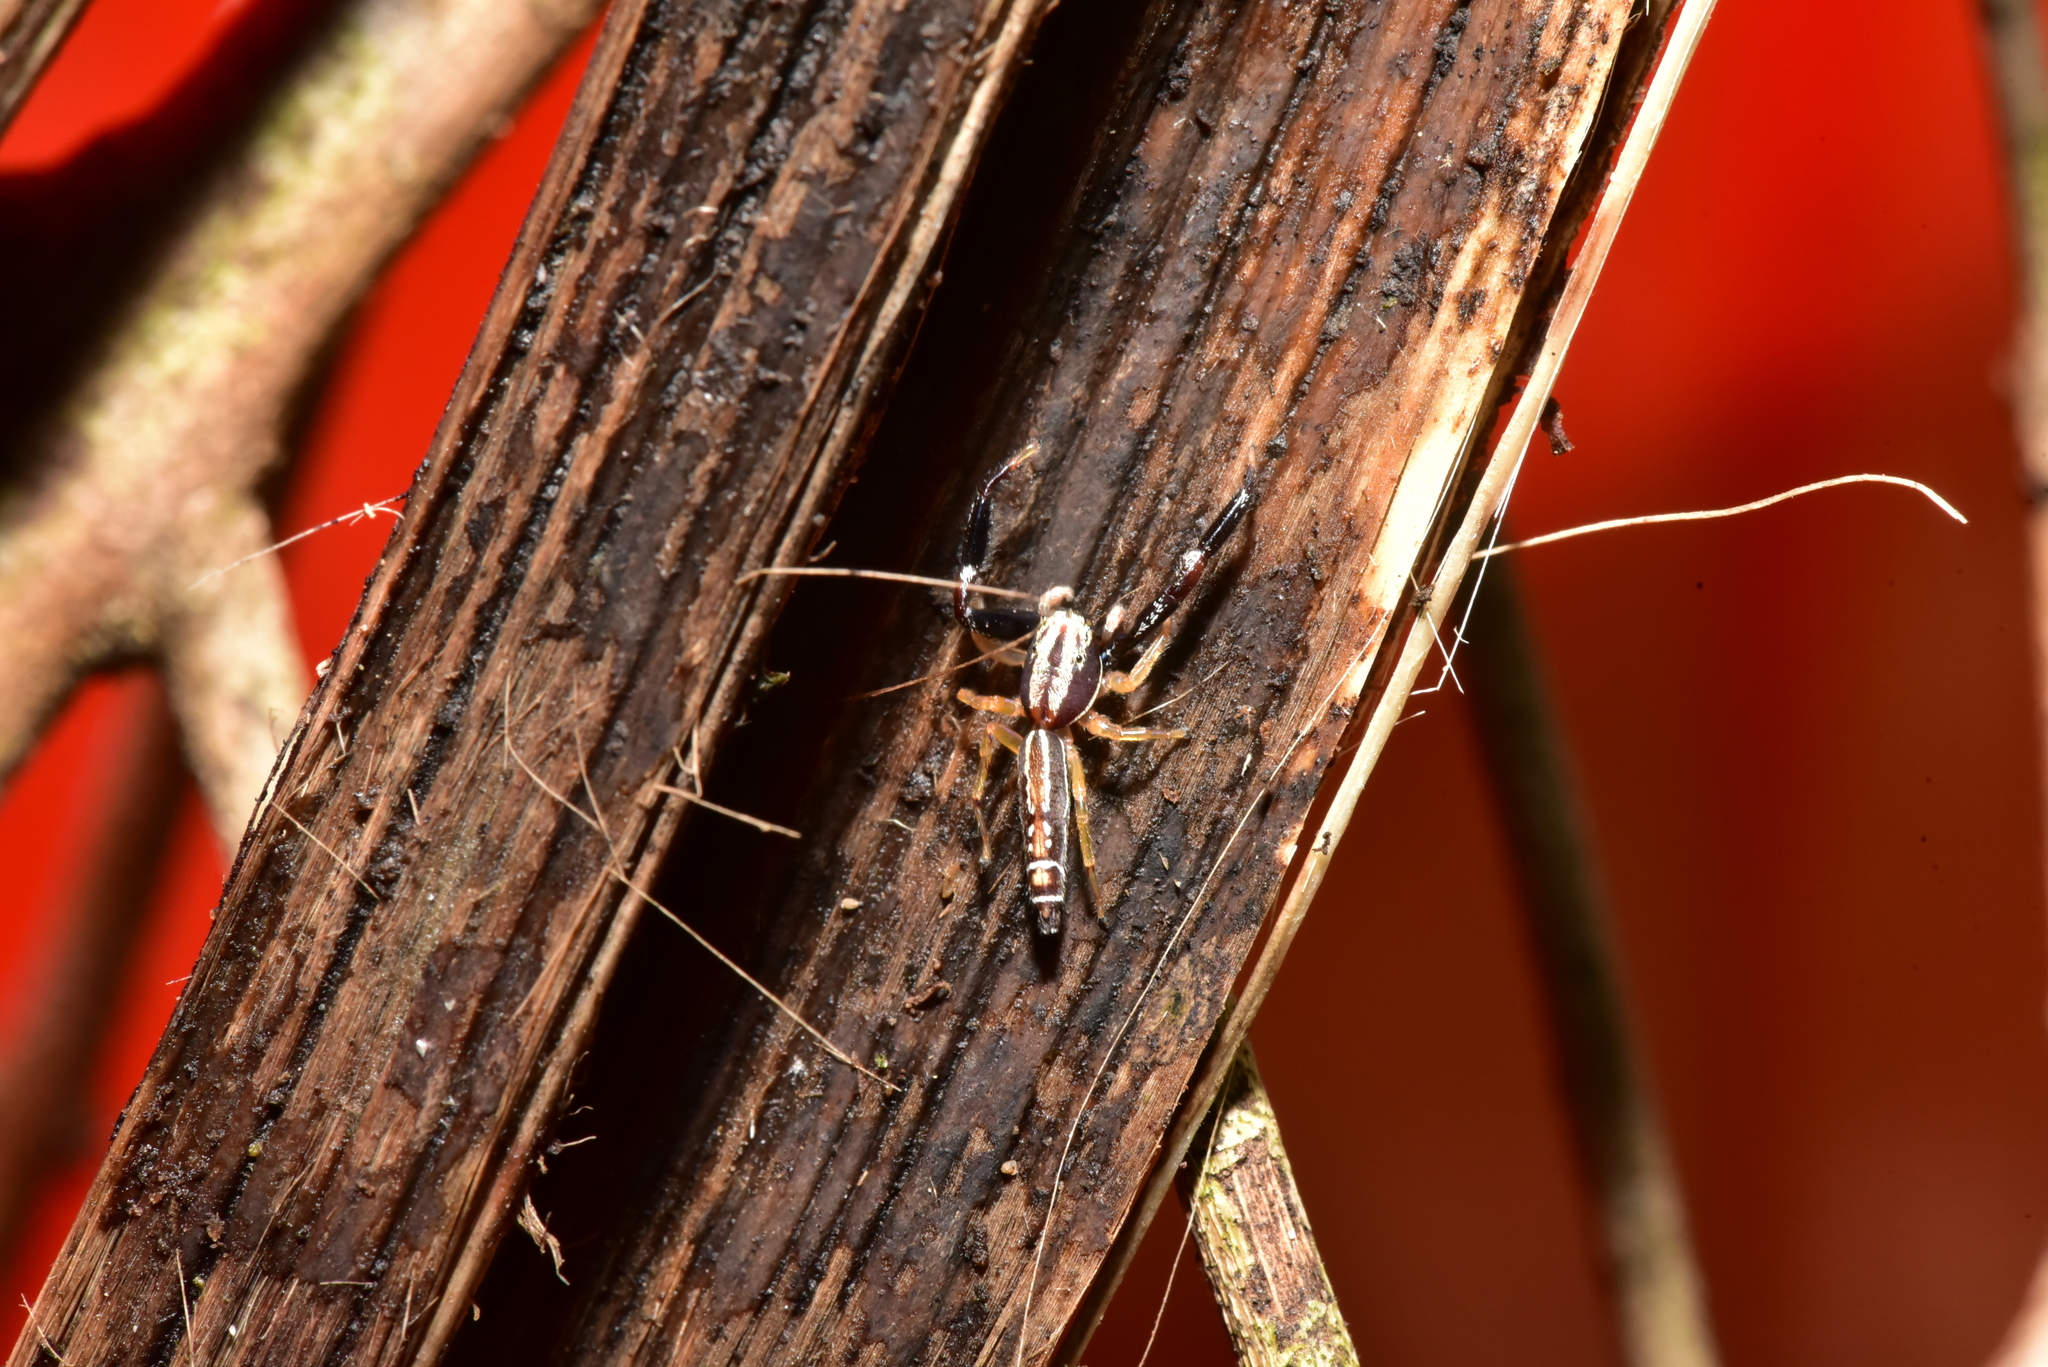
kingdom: Animalia
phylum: Arthropoda
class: Arachnida
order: Araneae
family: Salticidae
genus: Padillothorax
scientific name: Padillothorax semiostrinus
